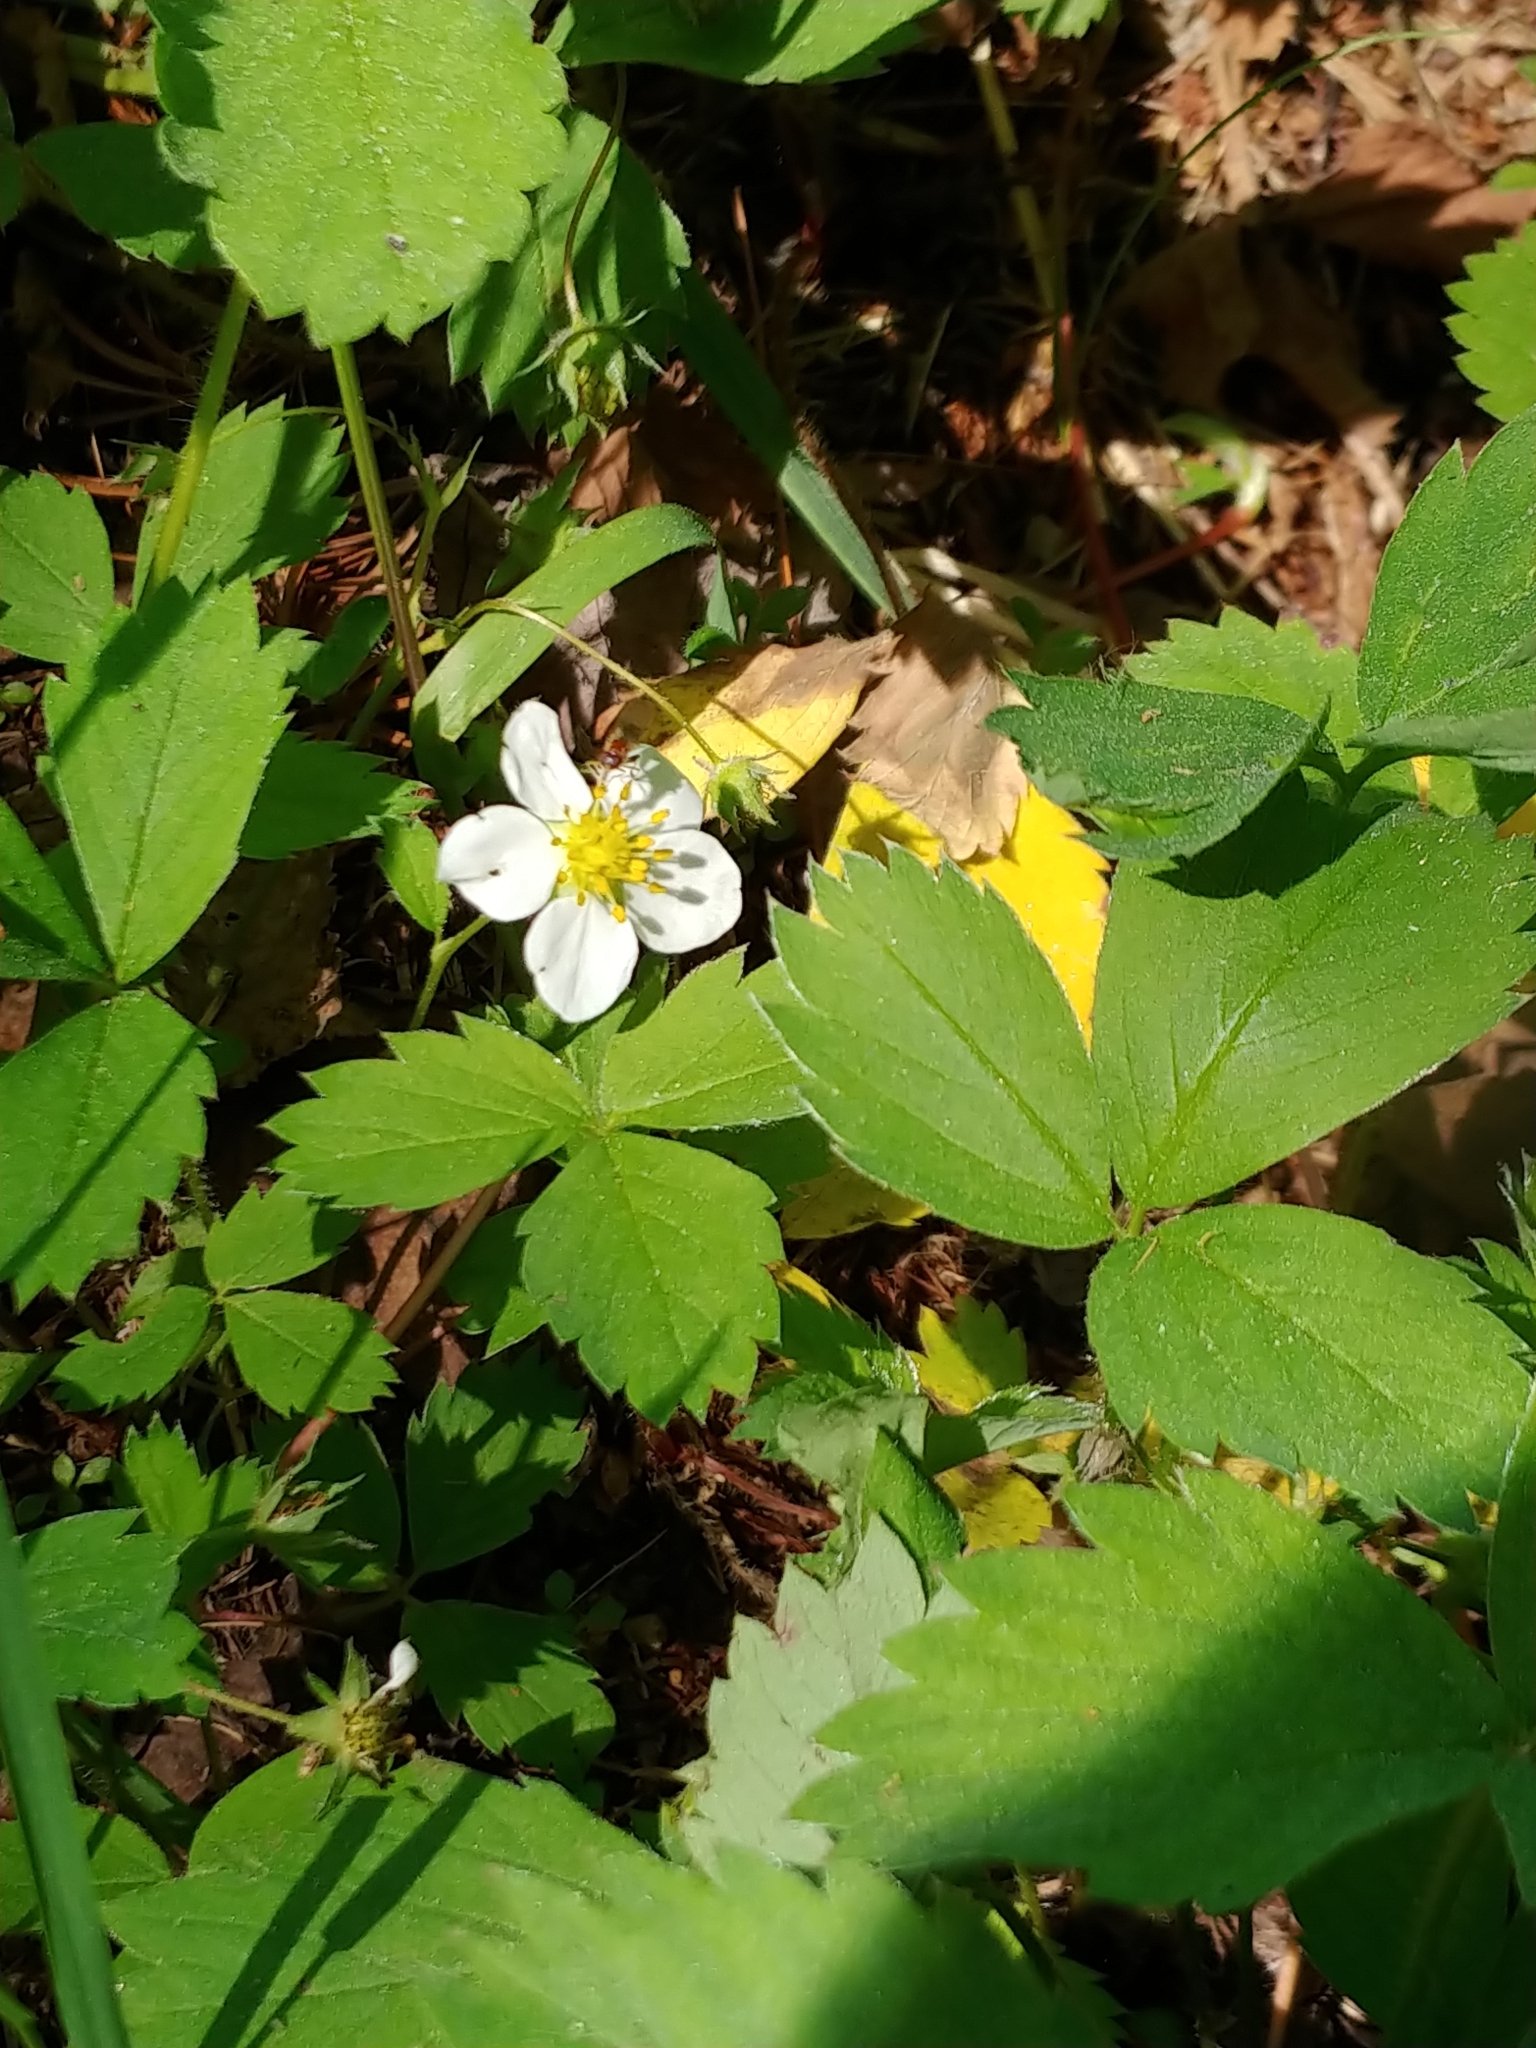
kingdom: Plantae
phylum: Tracheophyta
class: Magnoliopsida
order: Rosales
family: Rosaceae
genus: Fragaria
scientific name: Fragaria virginiana
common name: Thickleaved wild strawberry
